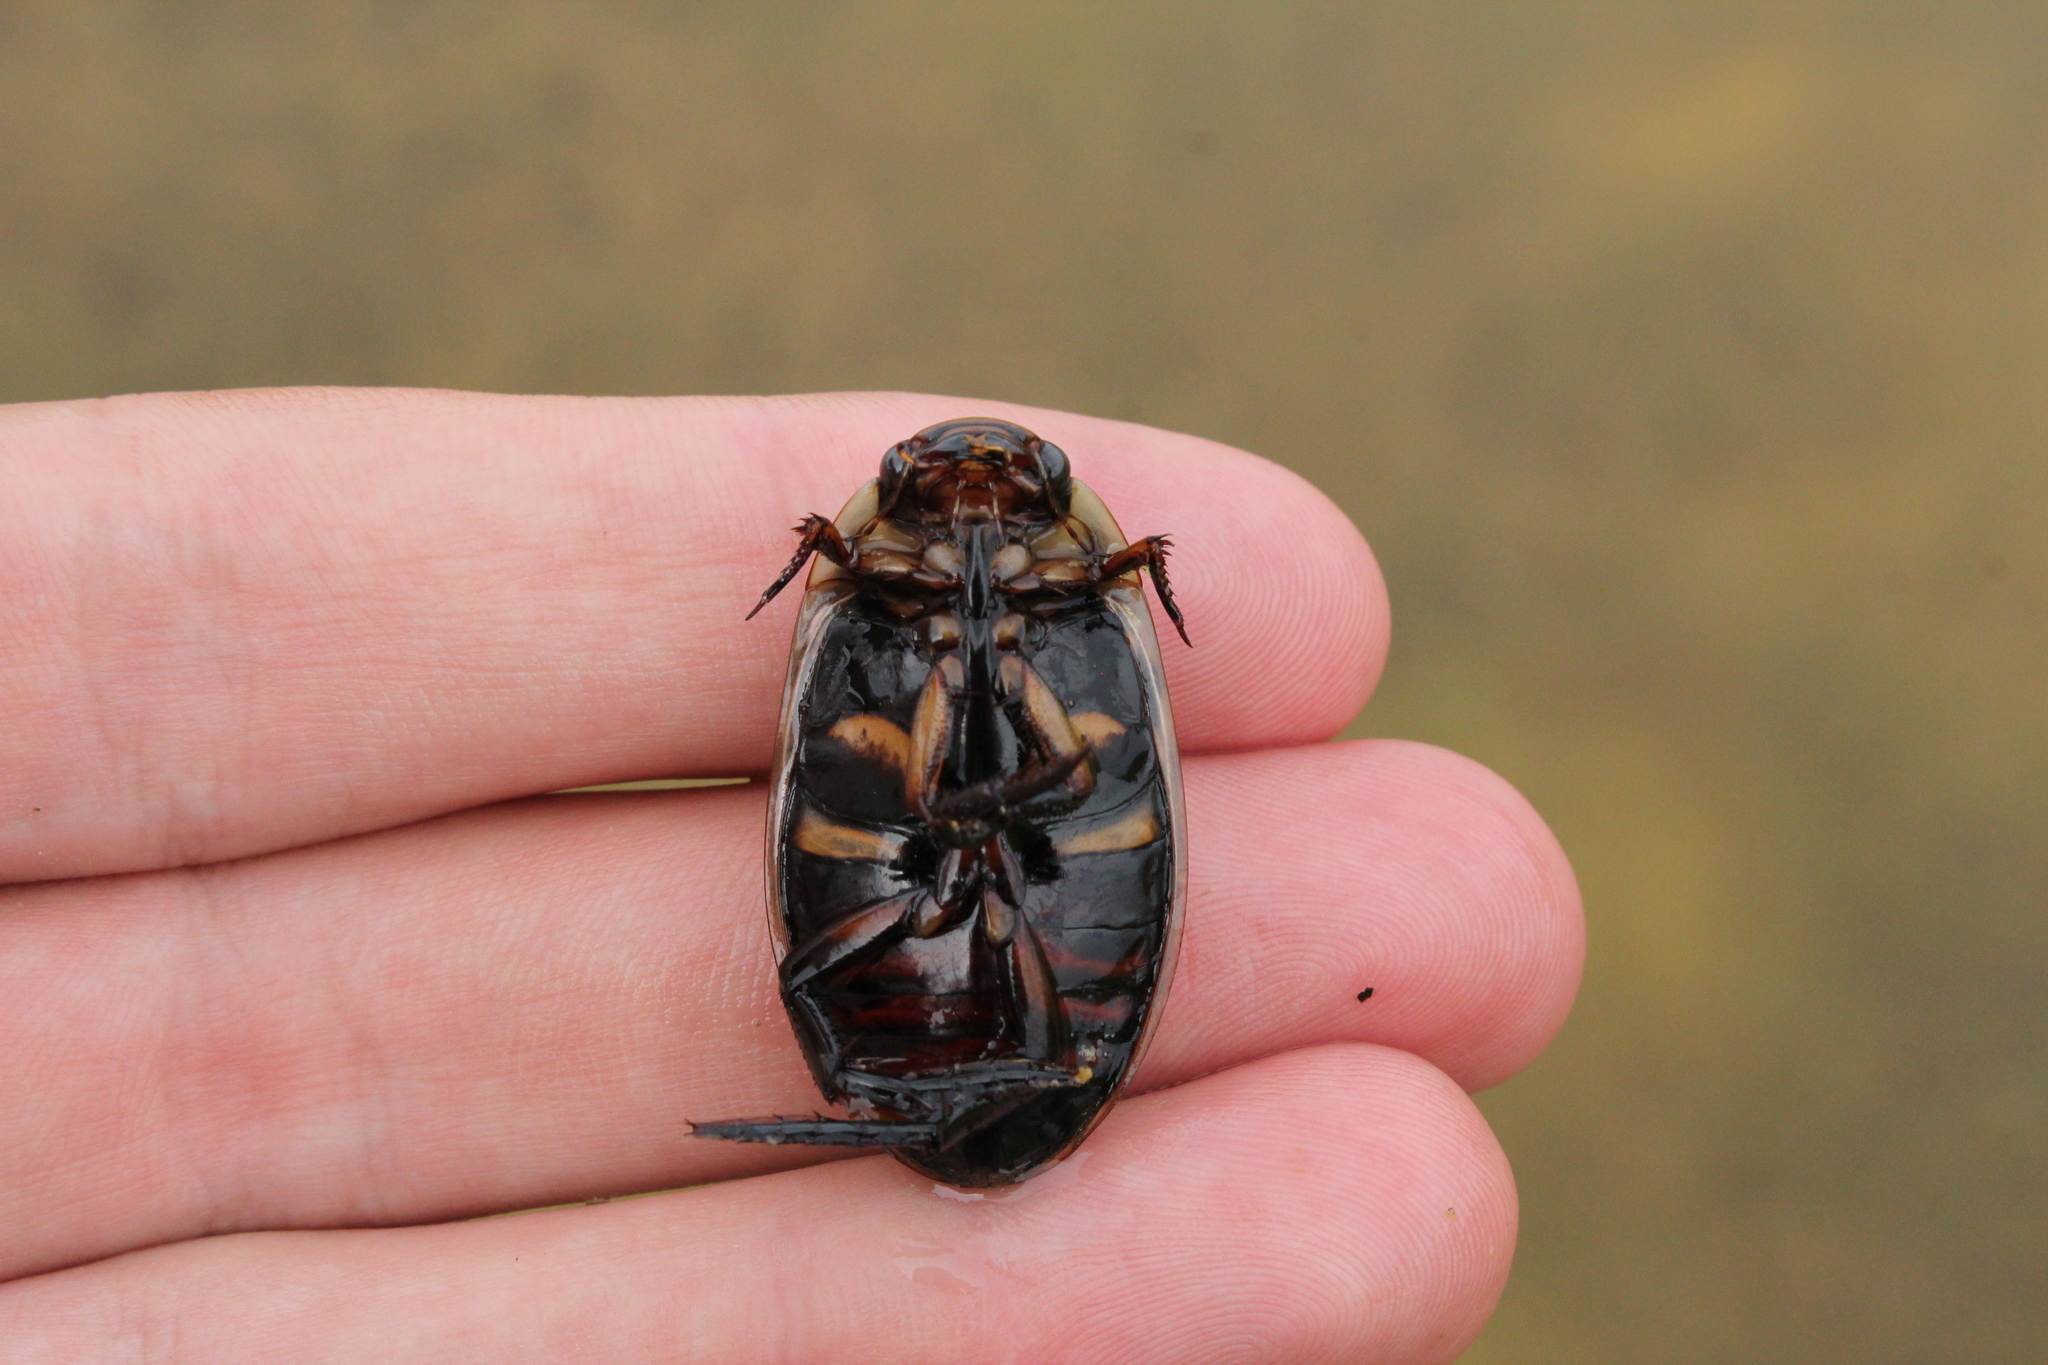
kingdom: Animalia
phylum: Arthropoda
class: Insecta
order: Coleoptera
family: Dytiscidae
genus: Dytiscus
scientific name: Dytiscus harrisii
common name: Harris's diving beetle
